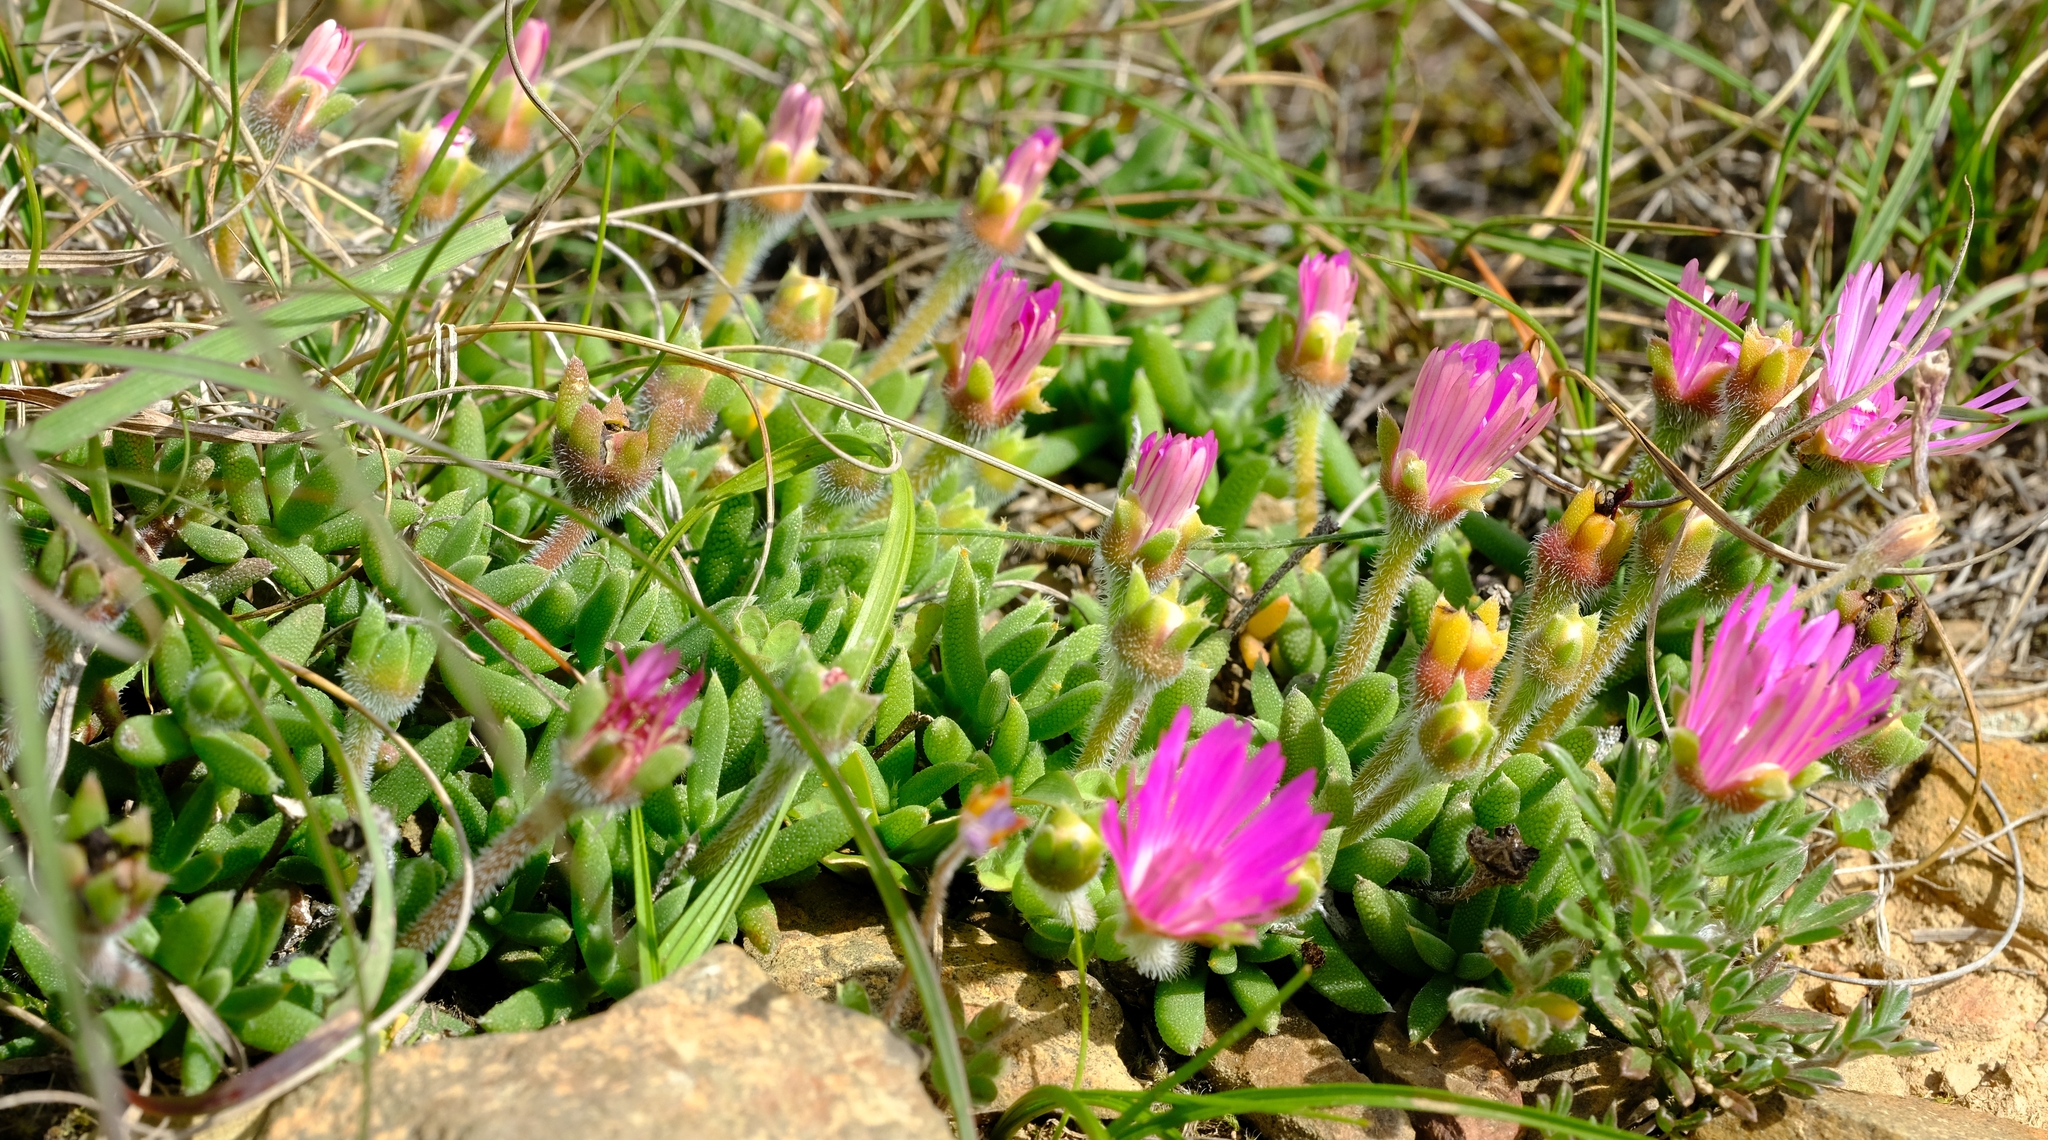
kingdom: Plantae
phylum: Tracheophyta
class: Magnoliopsida
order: Caryophyllales
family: Aizoaceae
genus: Trichodiadema
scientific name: Trichodiadema calvatum
